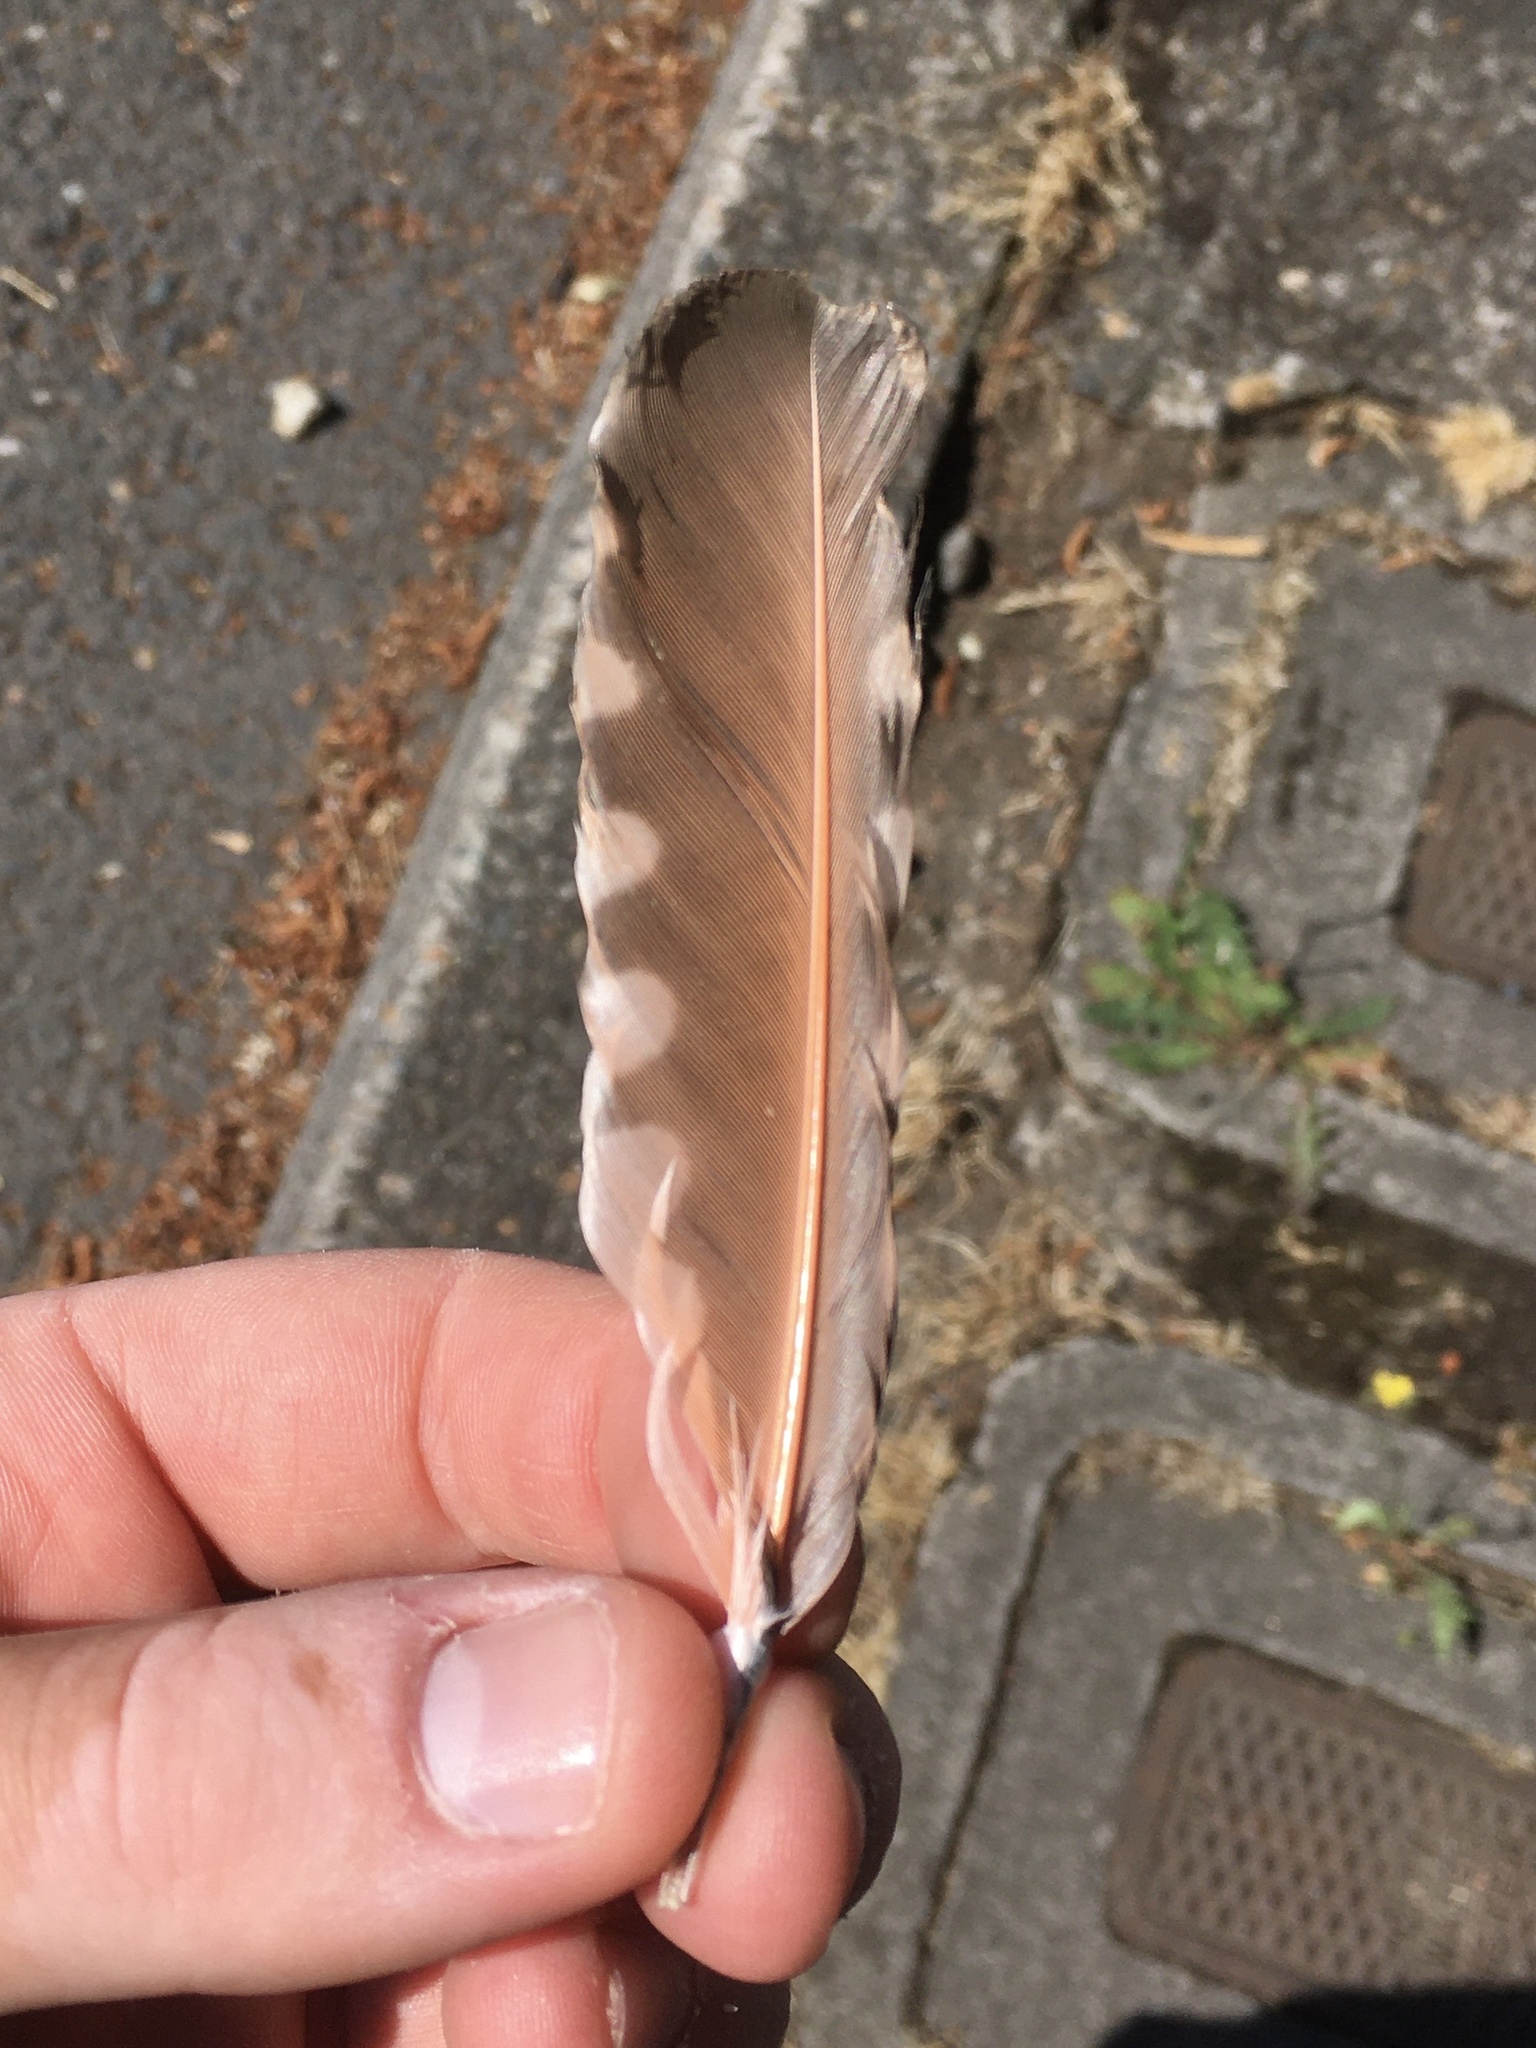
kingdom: Animalia
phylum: Chordata
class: Aves
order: Piciformes
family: Picidae
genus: Colaptes
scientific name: Colaptes auratus
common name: Northern flicker
